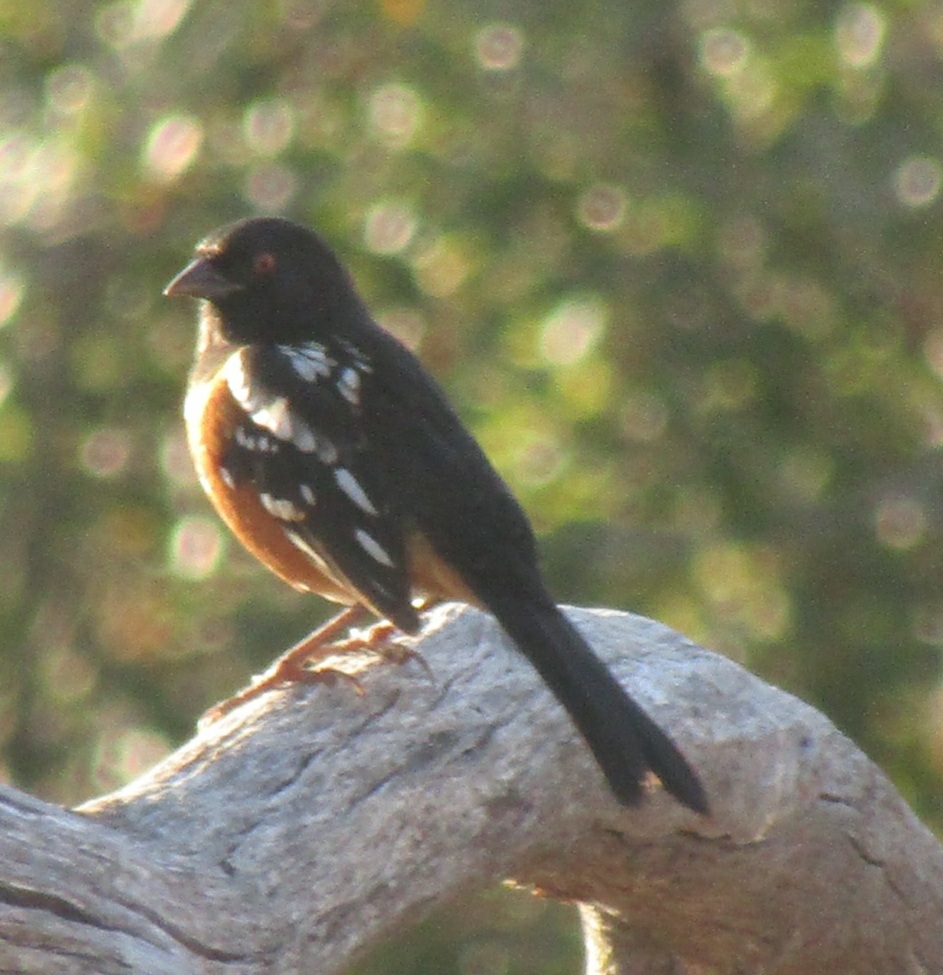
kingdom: Animalia
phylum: Chordata
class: Aves
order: Passeriformes
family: Passerellidae
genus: Pipilo
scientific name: Pipilo maculatus
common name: Spotted towhee
